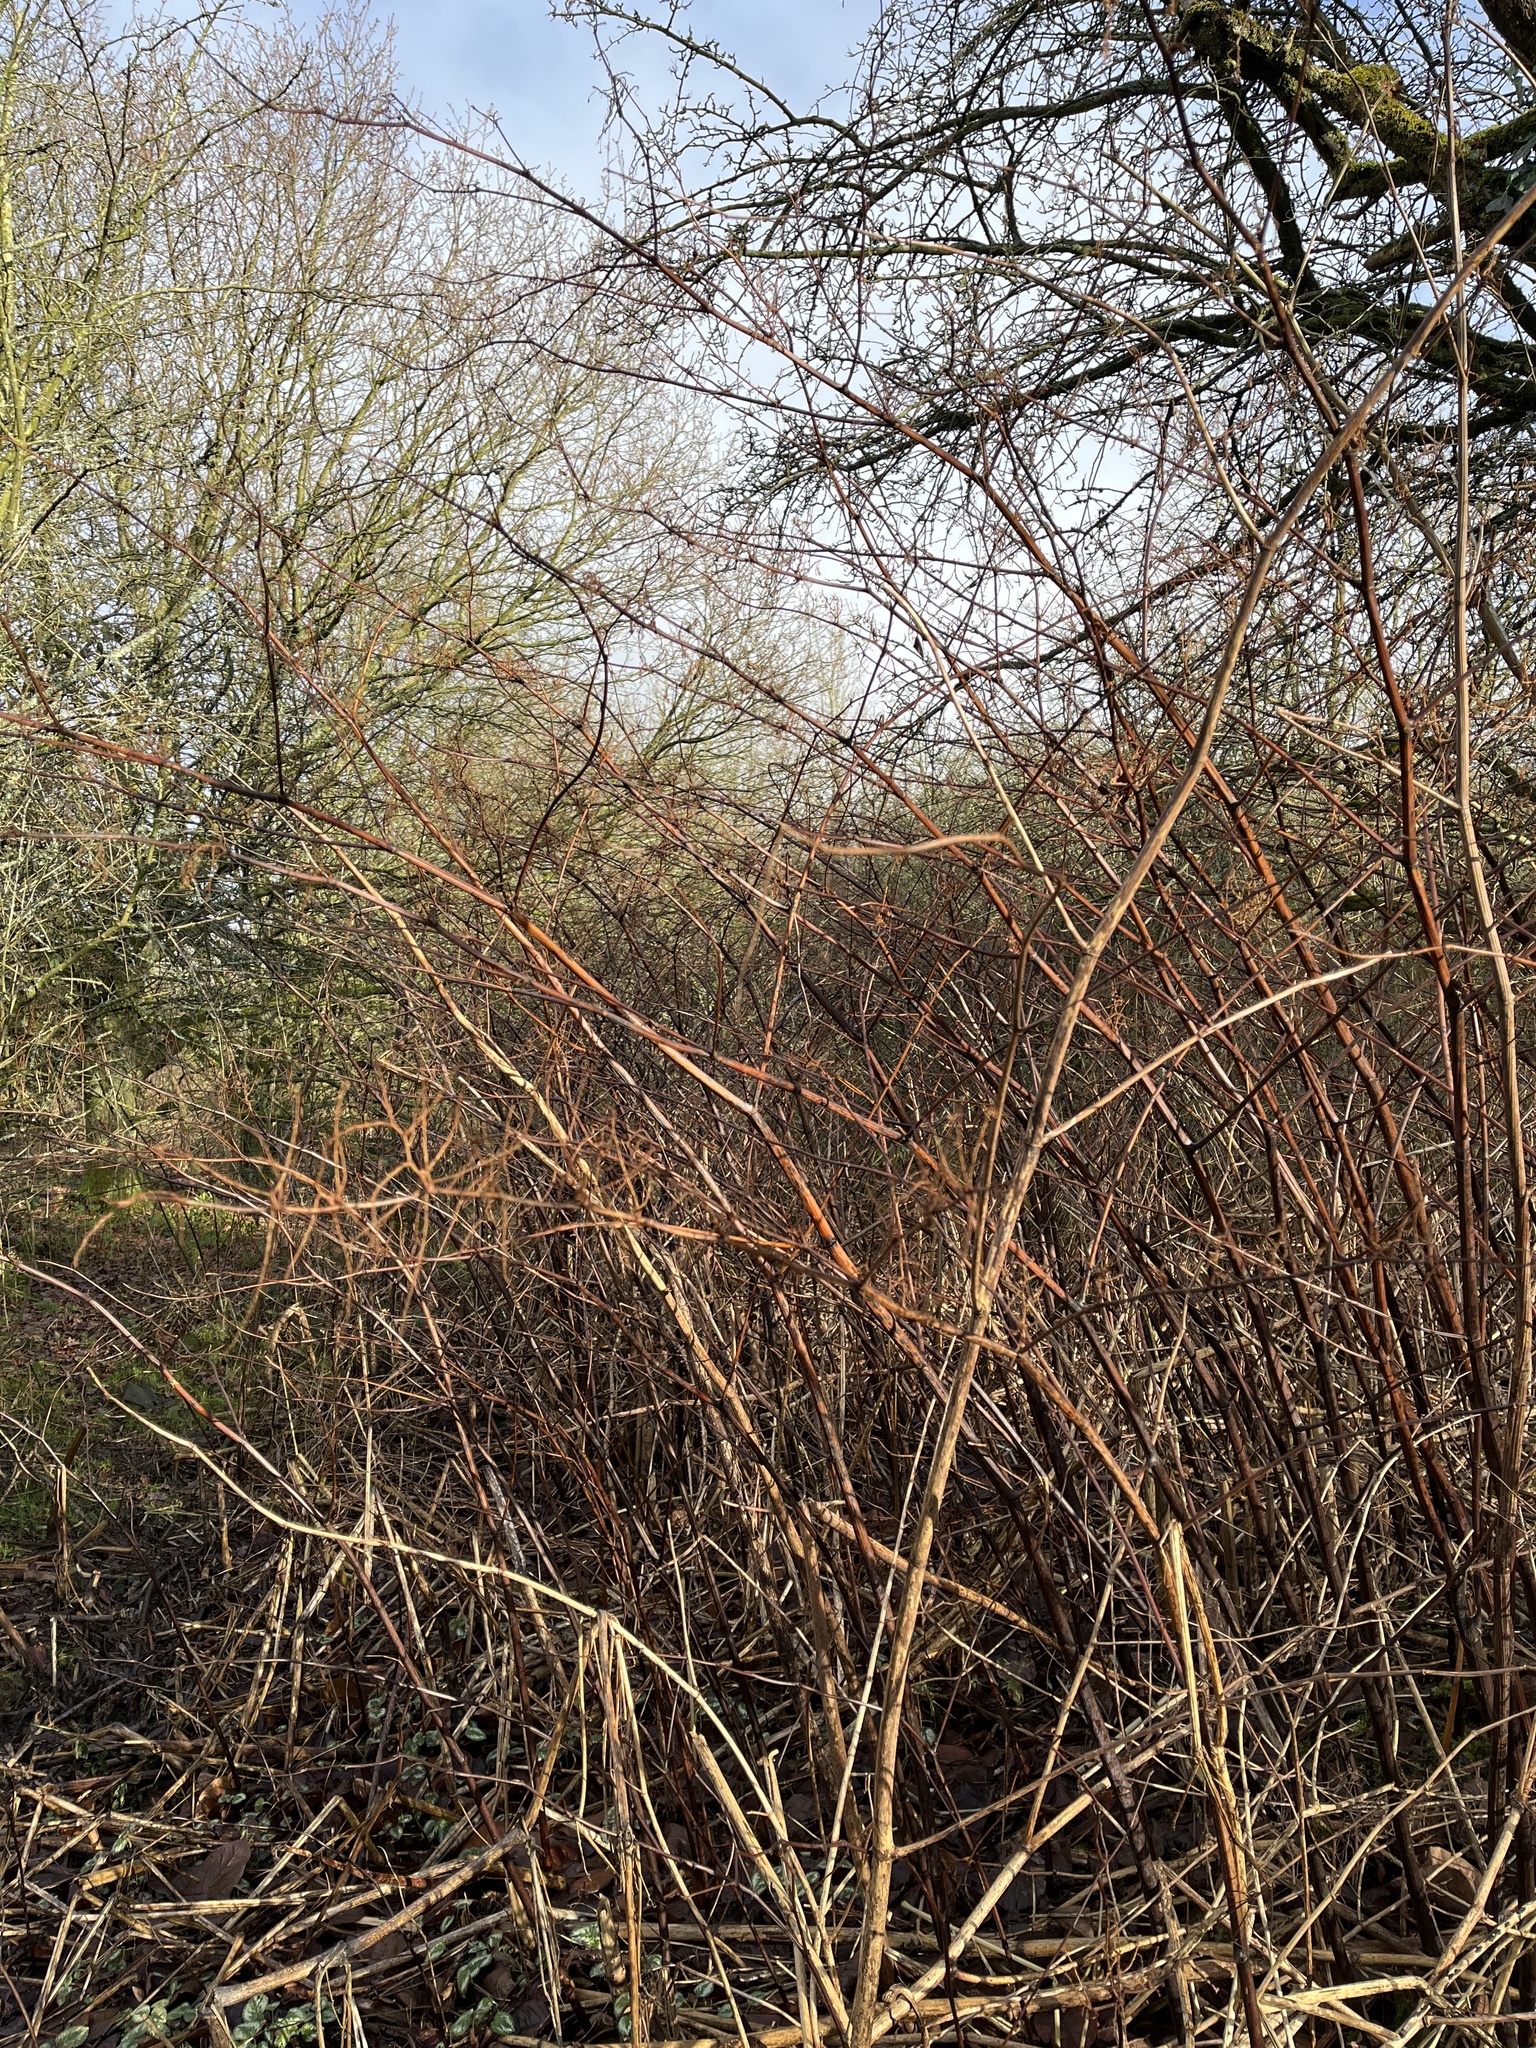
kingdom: Plantae
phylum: Tracheophyta
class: Magnoliopsida
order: Caryophyllales
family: Polygonaceae
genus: Reynoutria
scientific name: Reynoutria japonica
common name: Japanese knotweed
